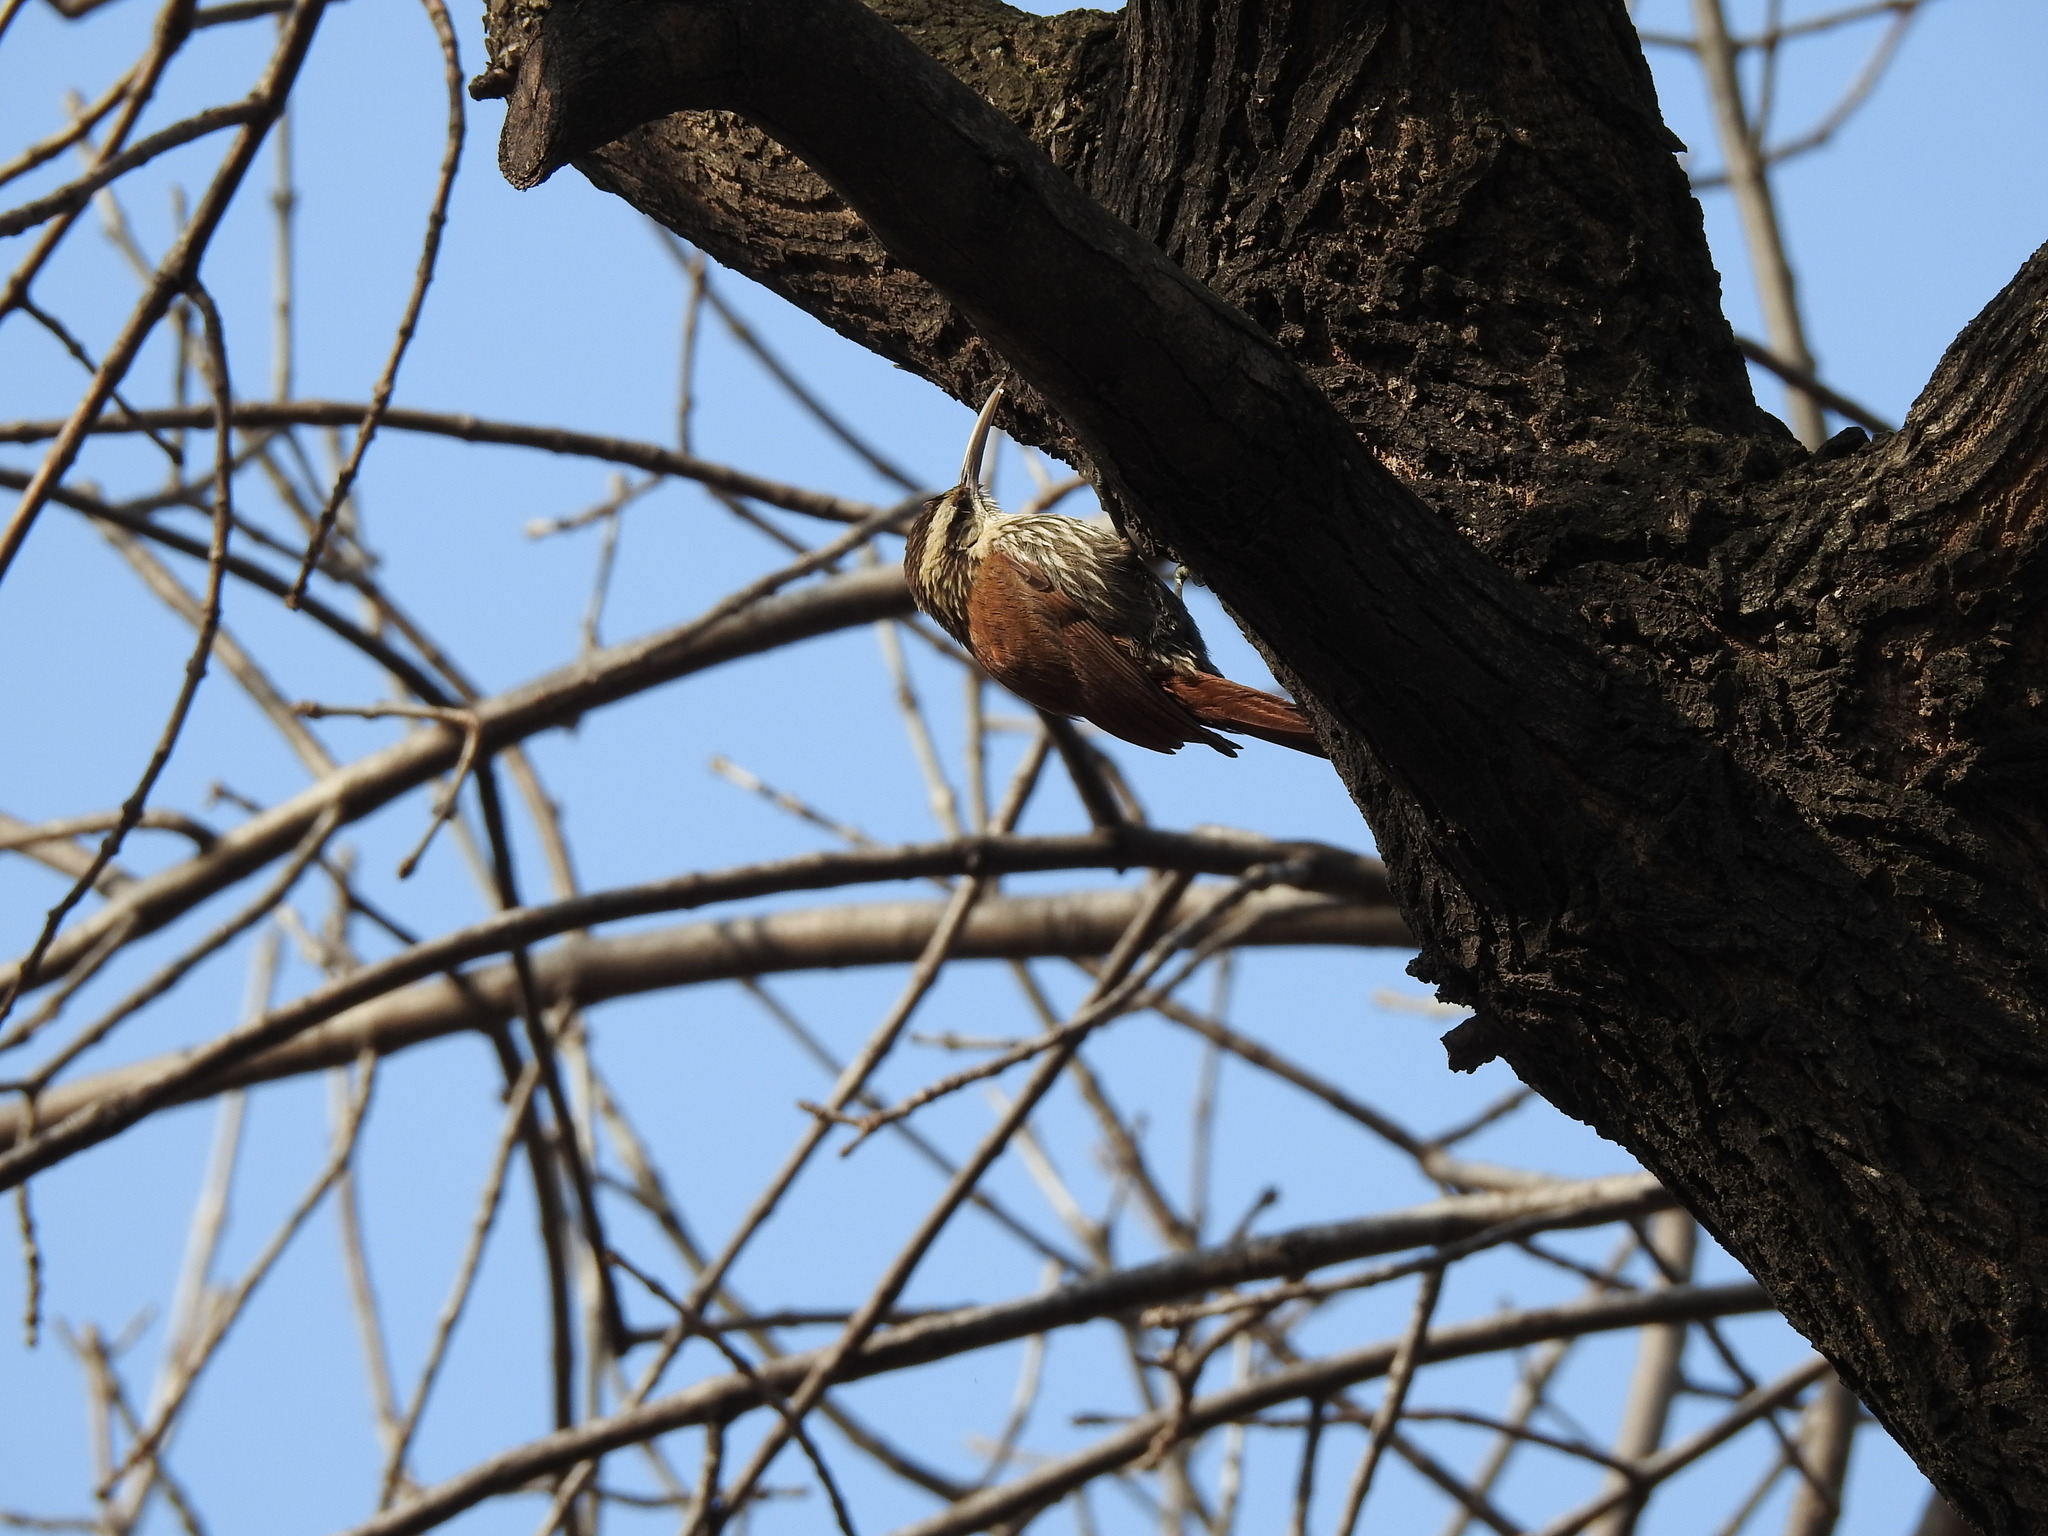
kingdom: Animalia
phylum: Chordata
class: Aves
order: Passeriformes
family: Furnariidae
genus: Lepidocolaptes
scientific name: Lepidocolaptes angustirostris
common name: Narrow-billed woodcreeper
